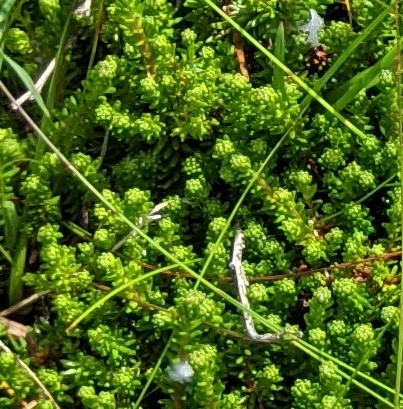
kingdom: Plantae
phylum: Tracheophyta
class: Magnoliopsida
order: Ericales
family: Ericaceae
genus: Empetrum
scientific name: Empetrum nigrum
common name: Black crowberry
